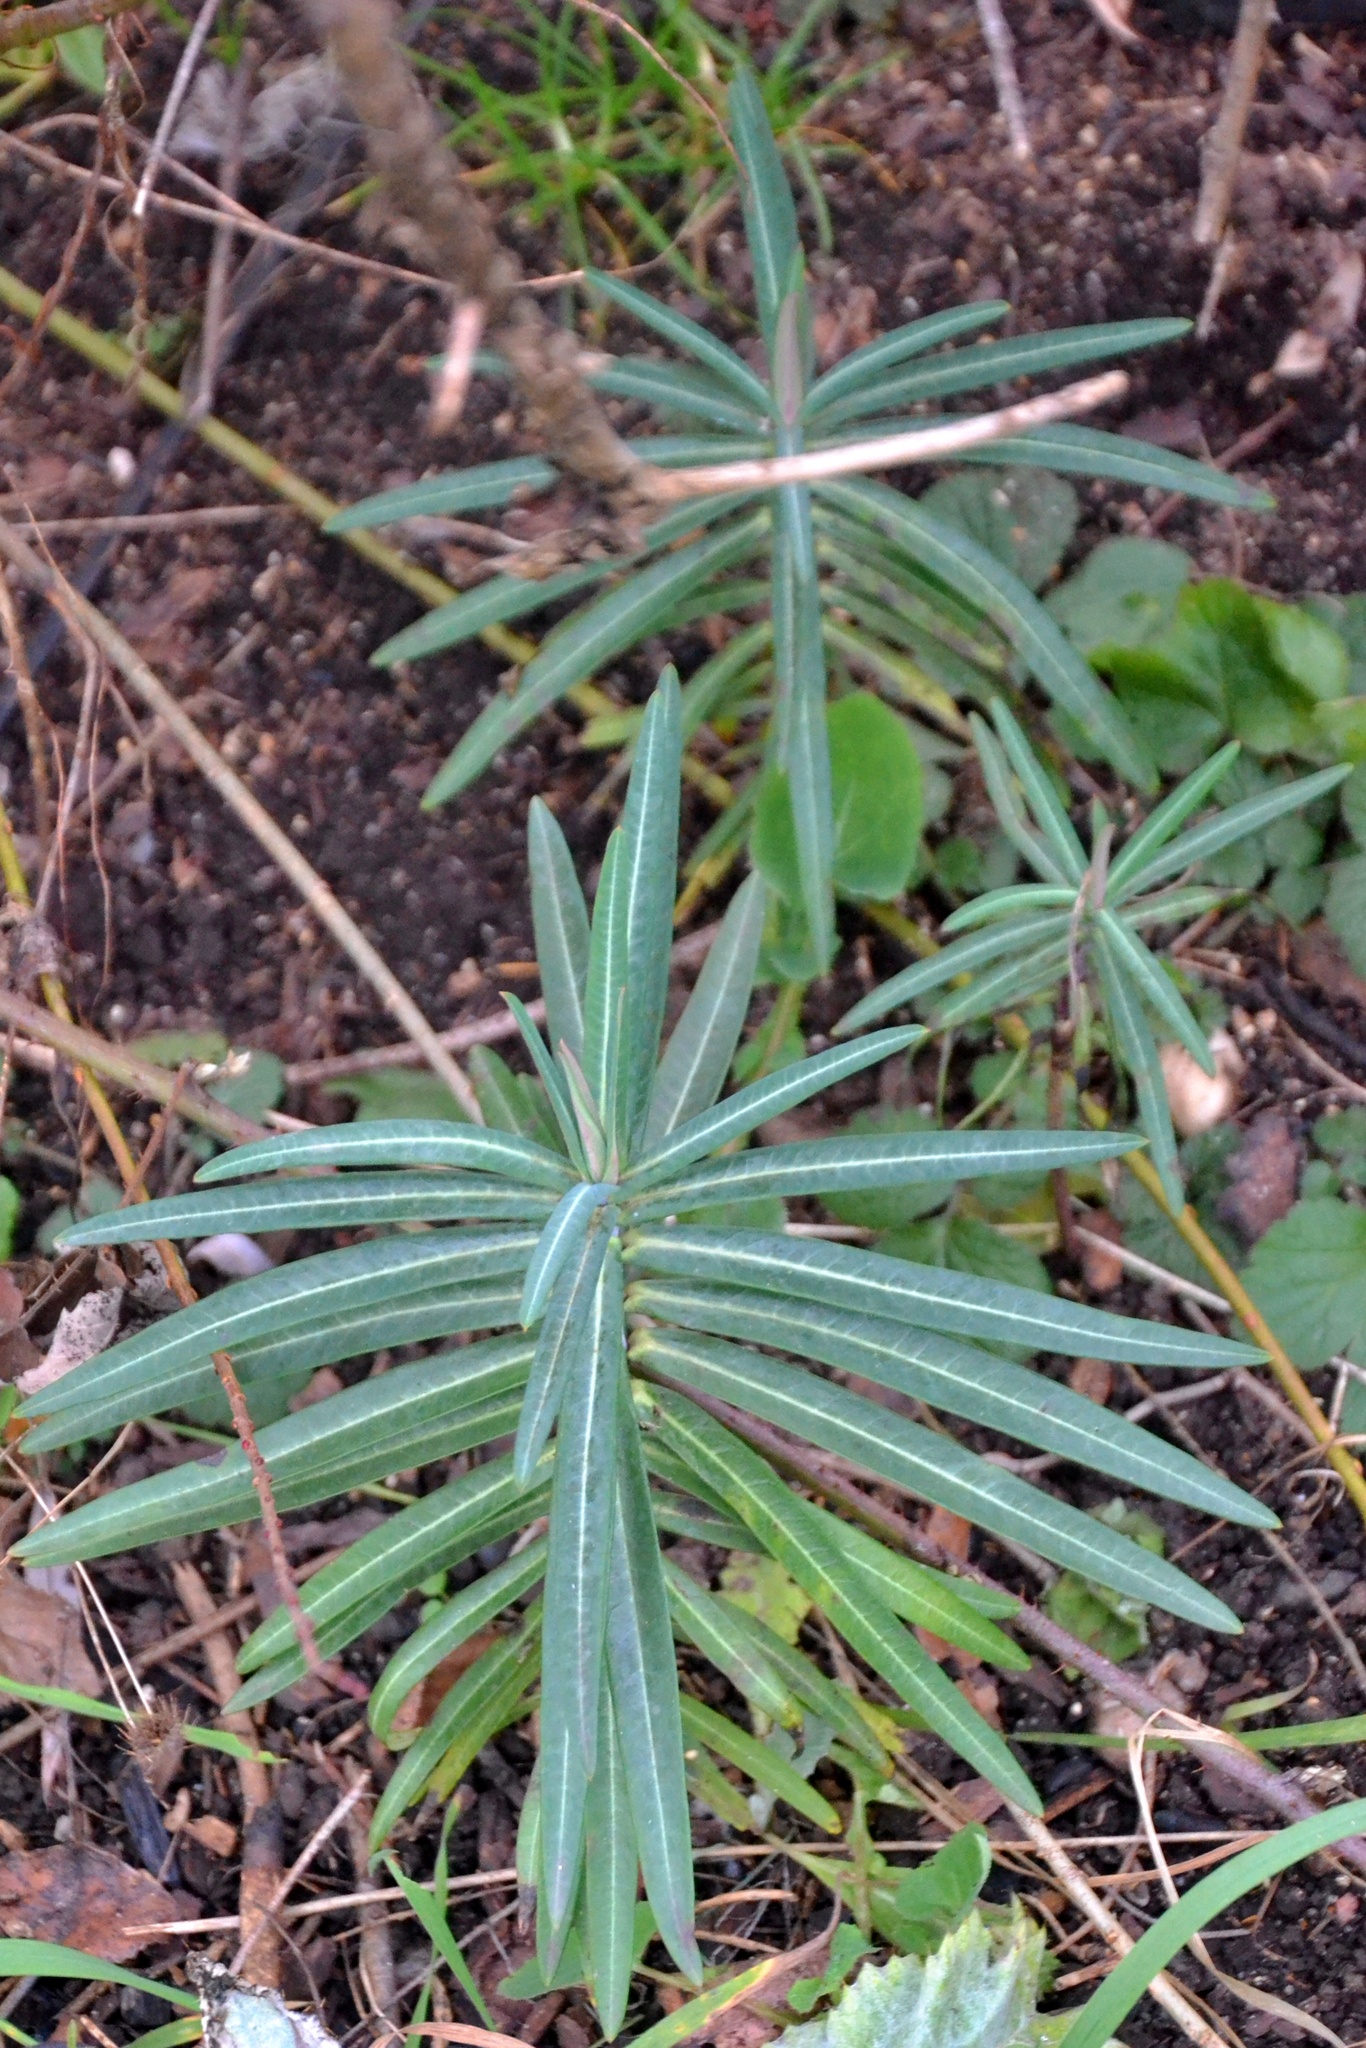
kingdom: Plantae
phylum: Tracheophyta
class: Magnoliopsida
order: Malpighiales
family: Euphorbiaceae
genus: Euphorbia
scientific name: Euphorbia lathyris
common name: Caper spurge
